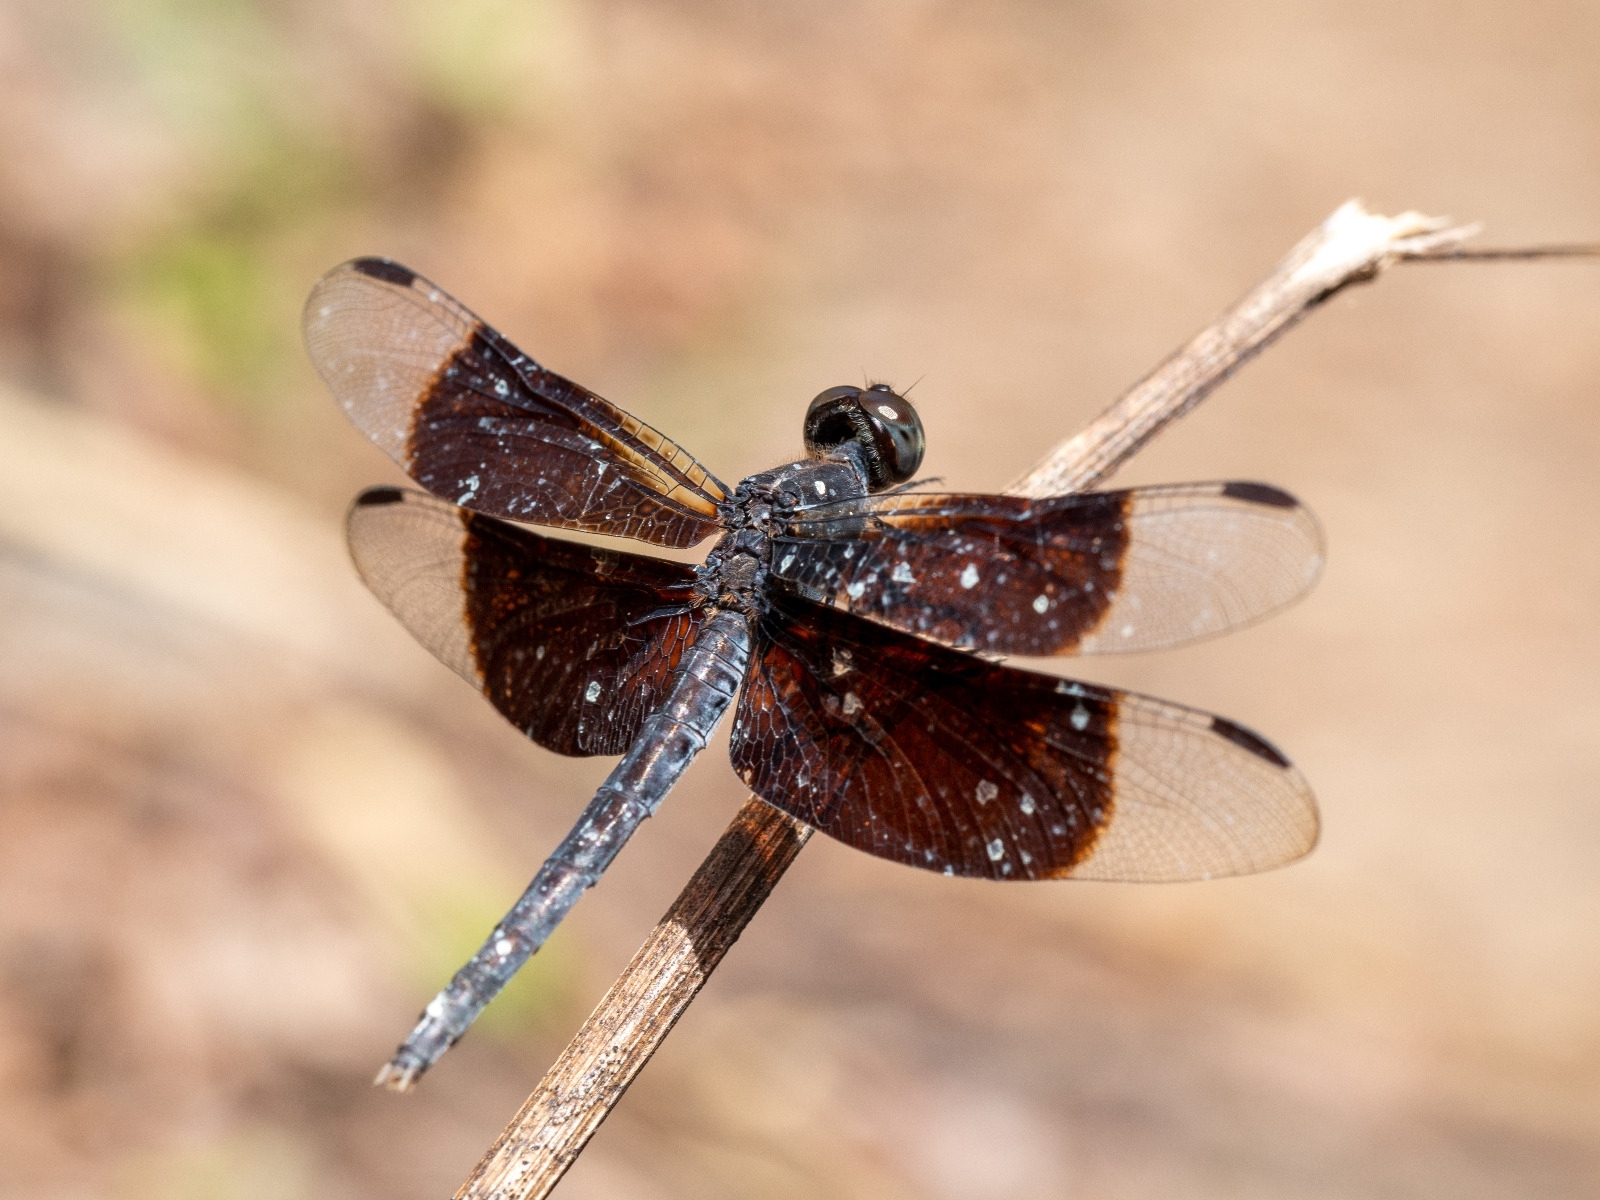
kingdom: Animalia
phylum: Arthropoda
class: Insecta
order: Odonata
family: Libellulidae
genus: Erythrodiplax
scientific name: Erythrodiplax funerea
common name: Black-winged dragonlet
